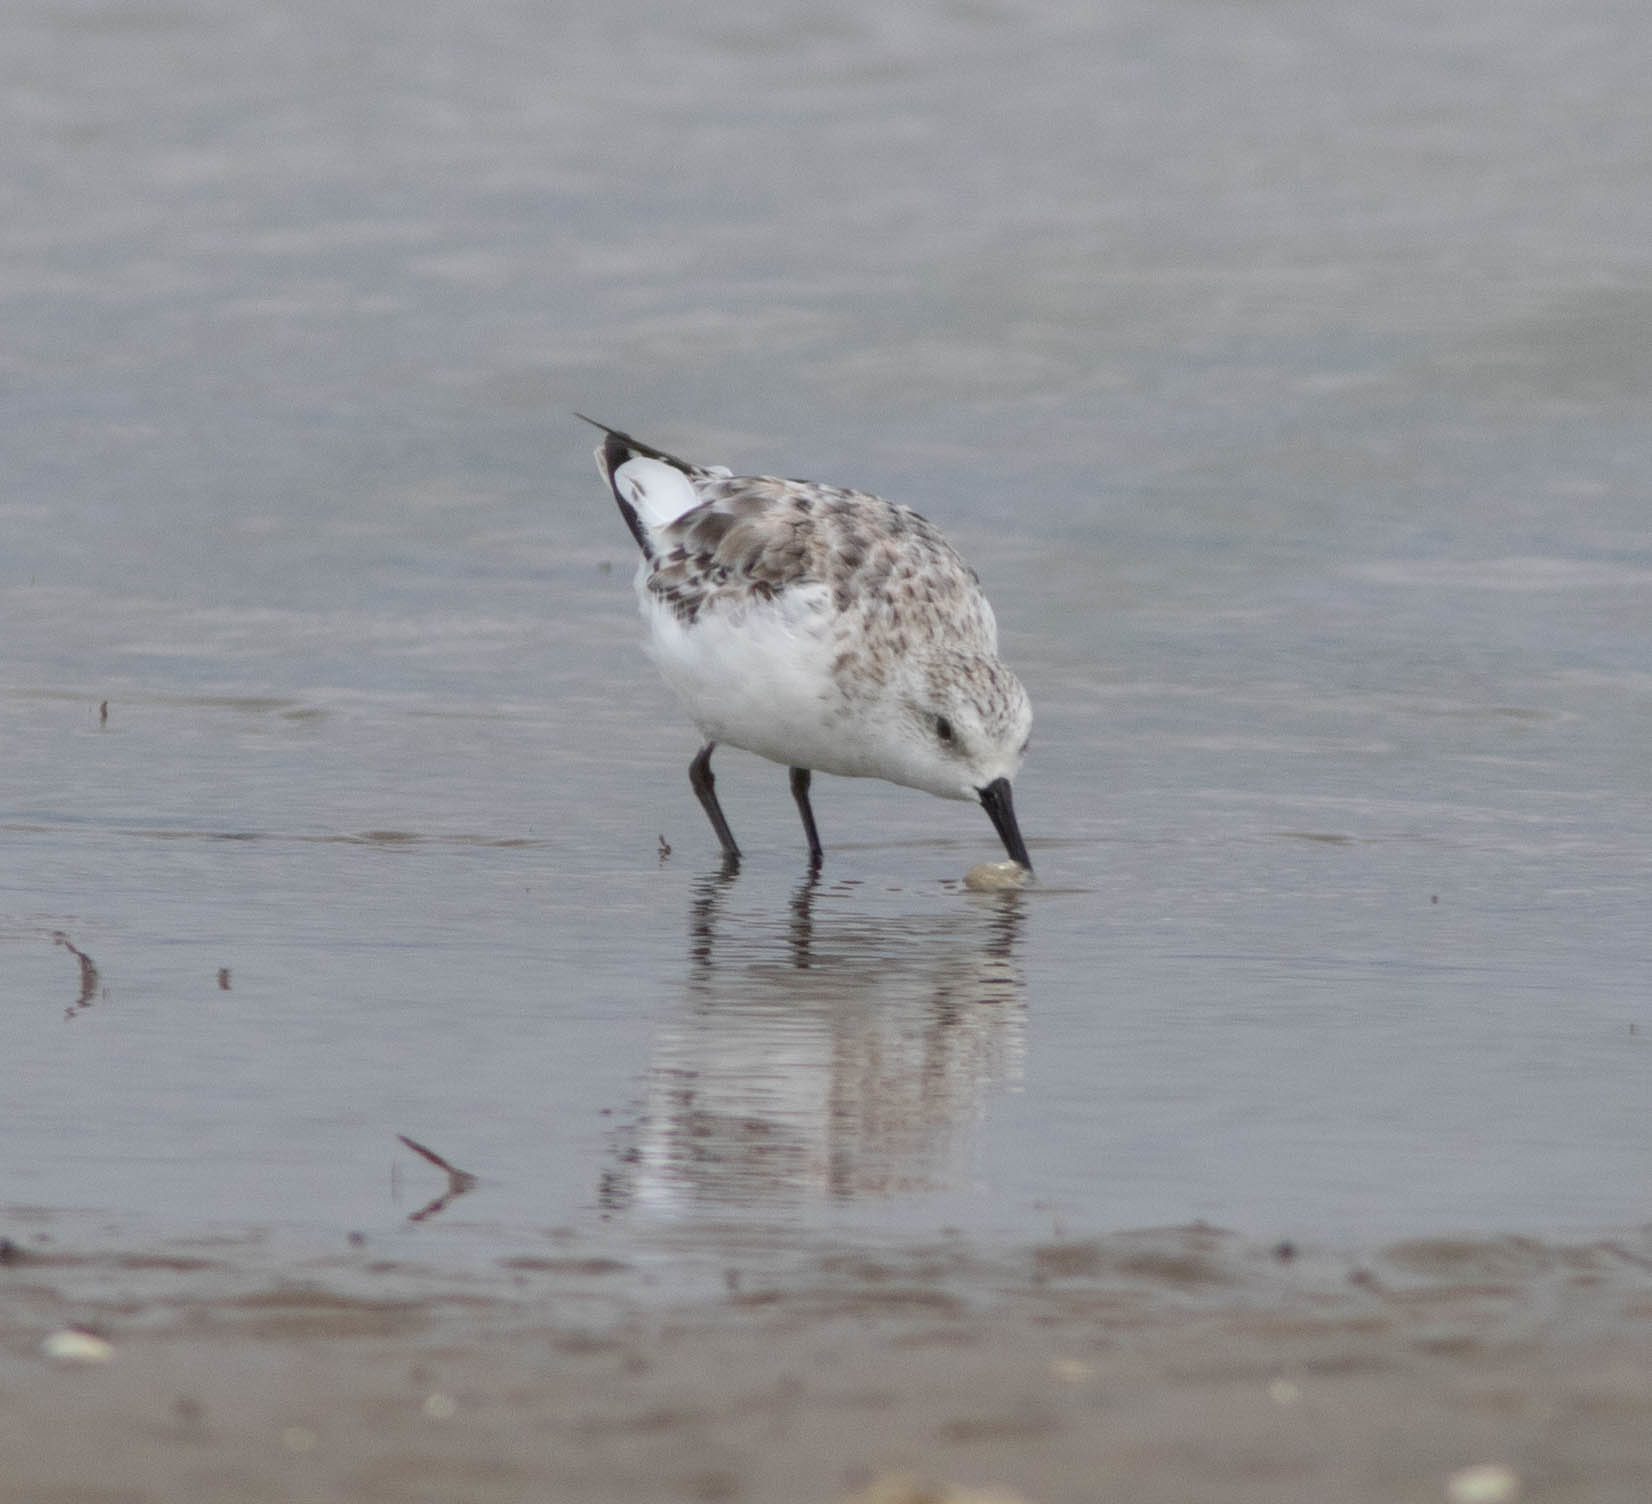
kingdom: Animalia
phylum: Chordata
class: Aves
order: Charadriiformes
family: Scolopacidae
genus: Calidris
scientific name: Calidris alba
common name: Sanderling
